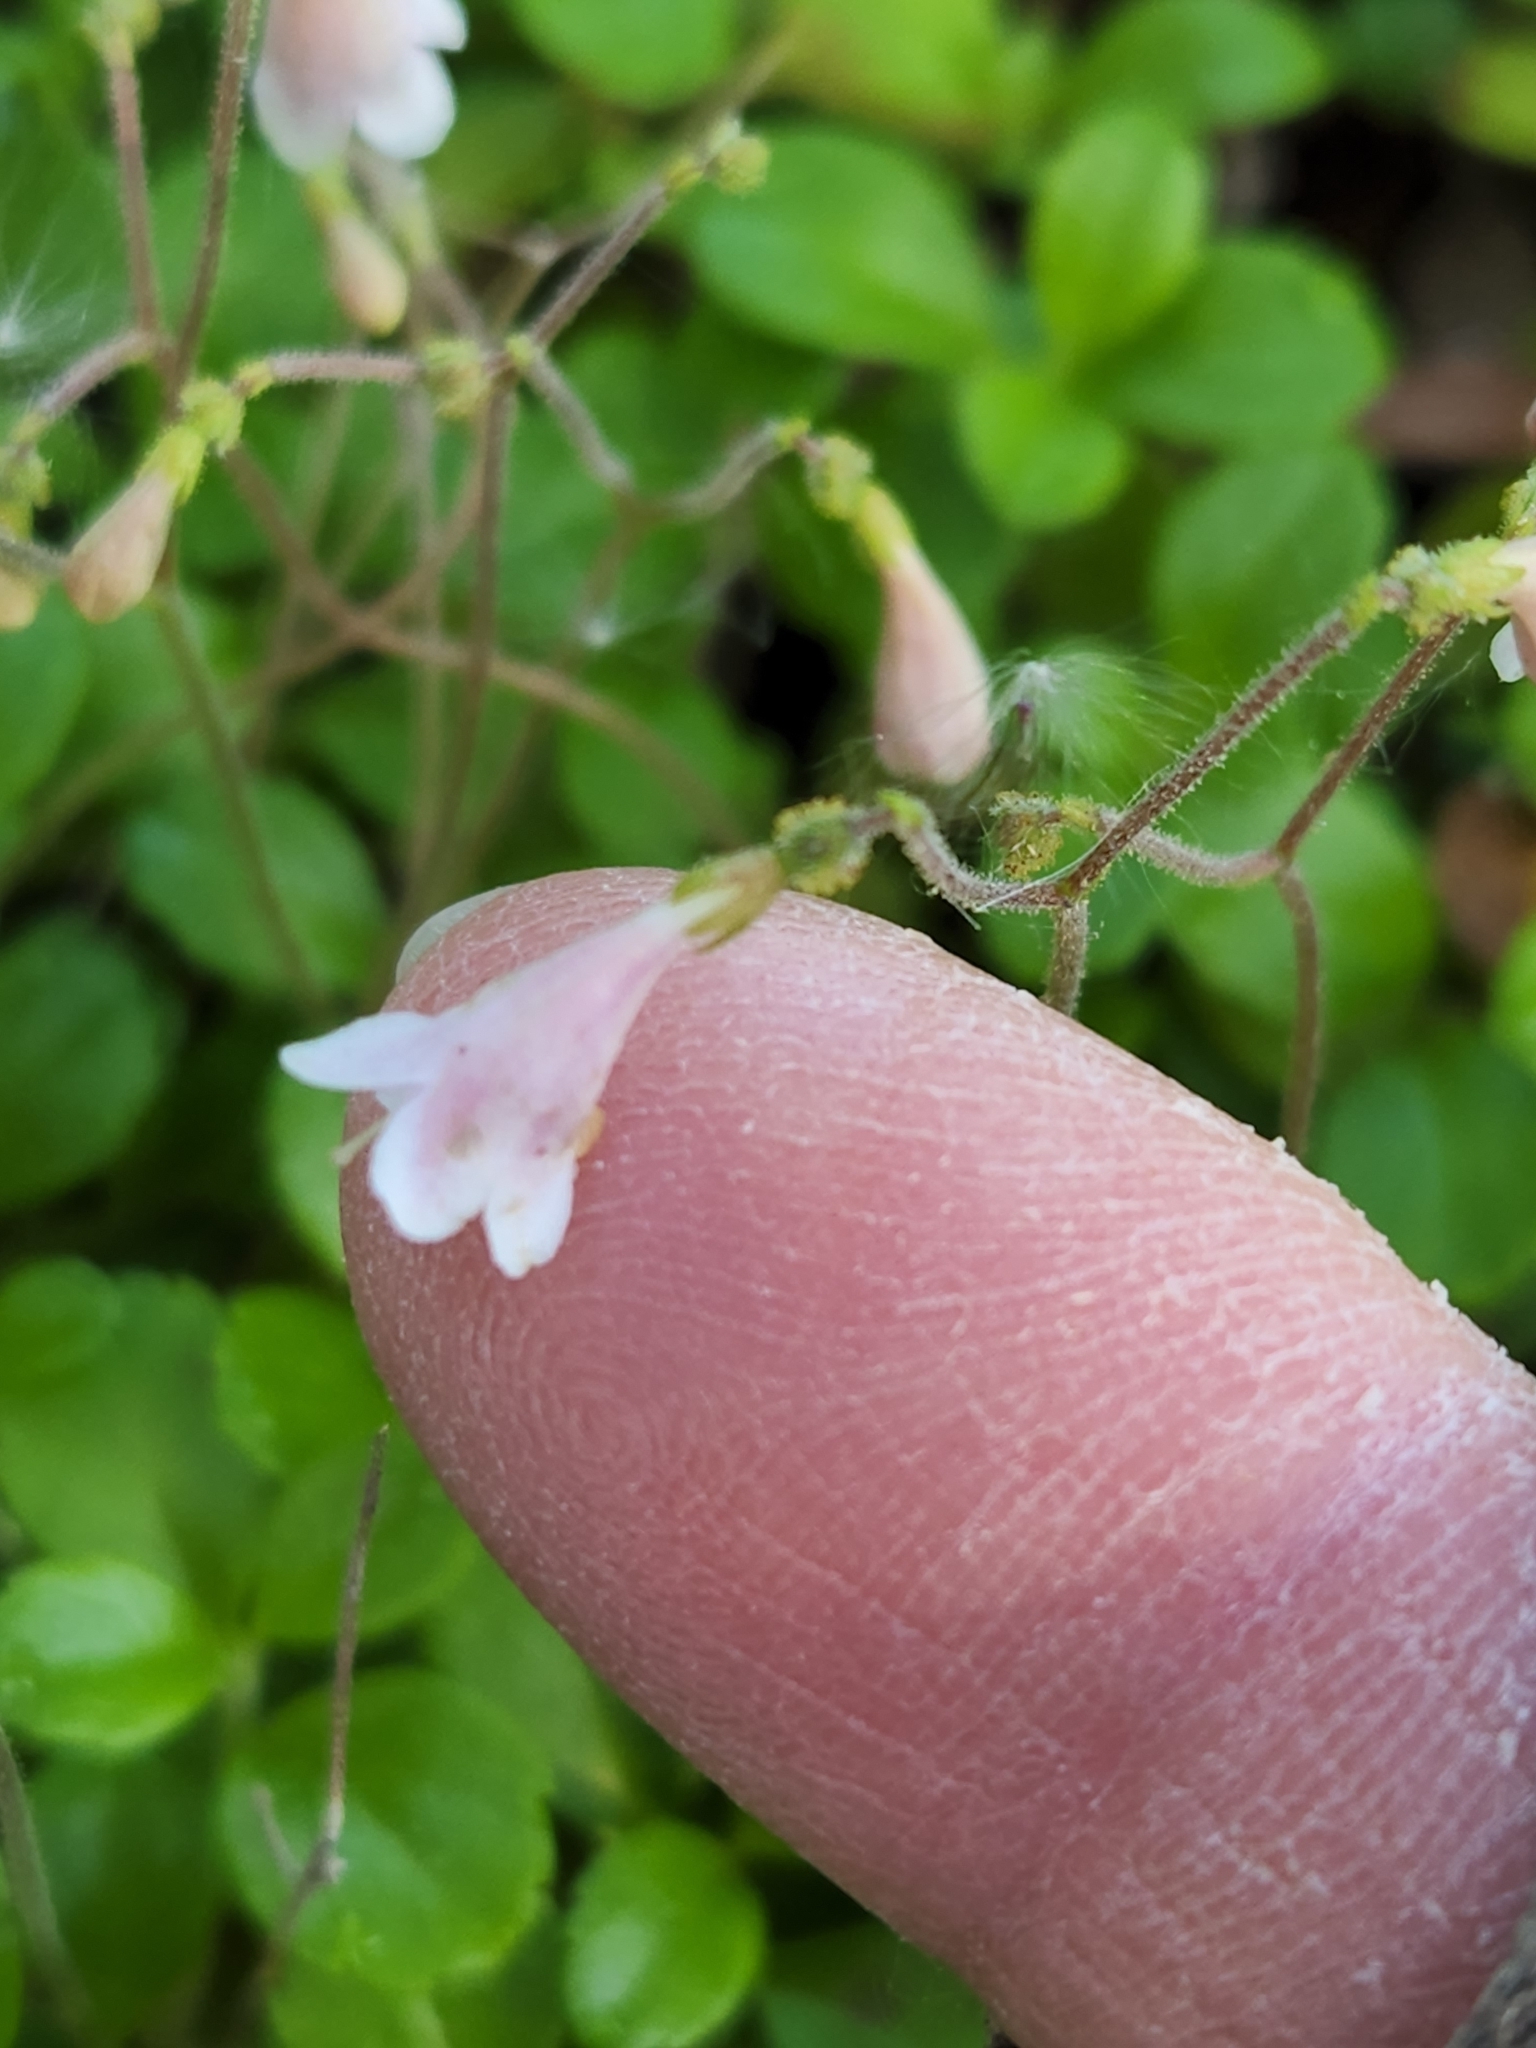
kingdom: Plantae
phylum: Tracheophyta
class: Magnoliopsida
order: Dipsacales
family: Caprifoliaceae
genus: Linnaea
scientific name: Linnaea borealis
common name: Twinflower
